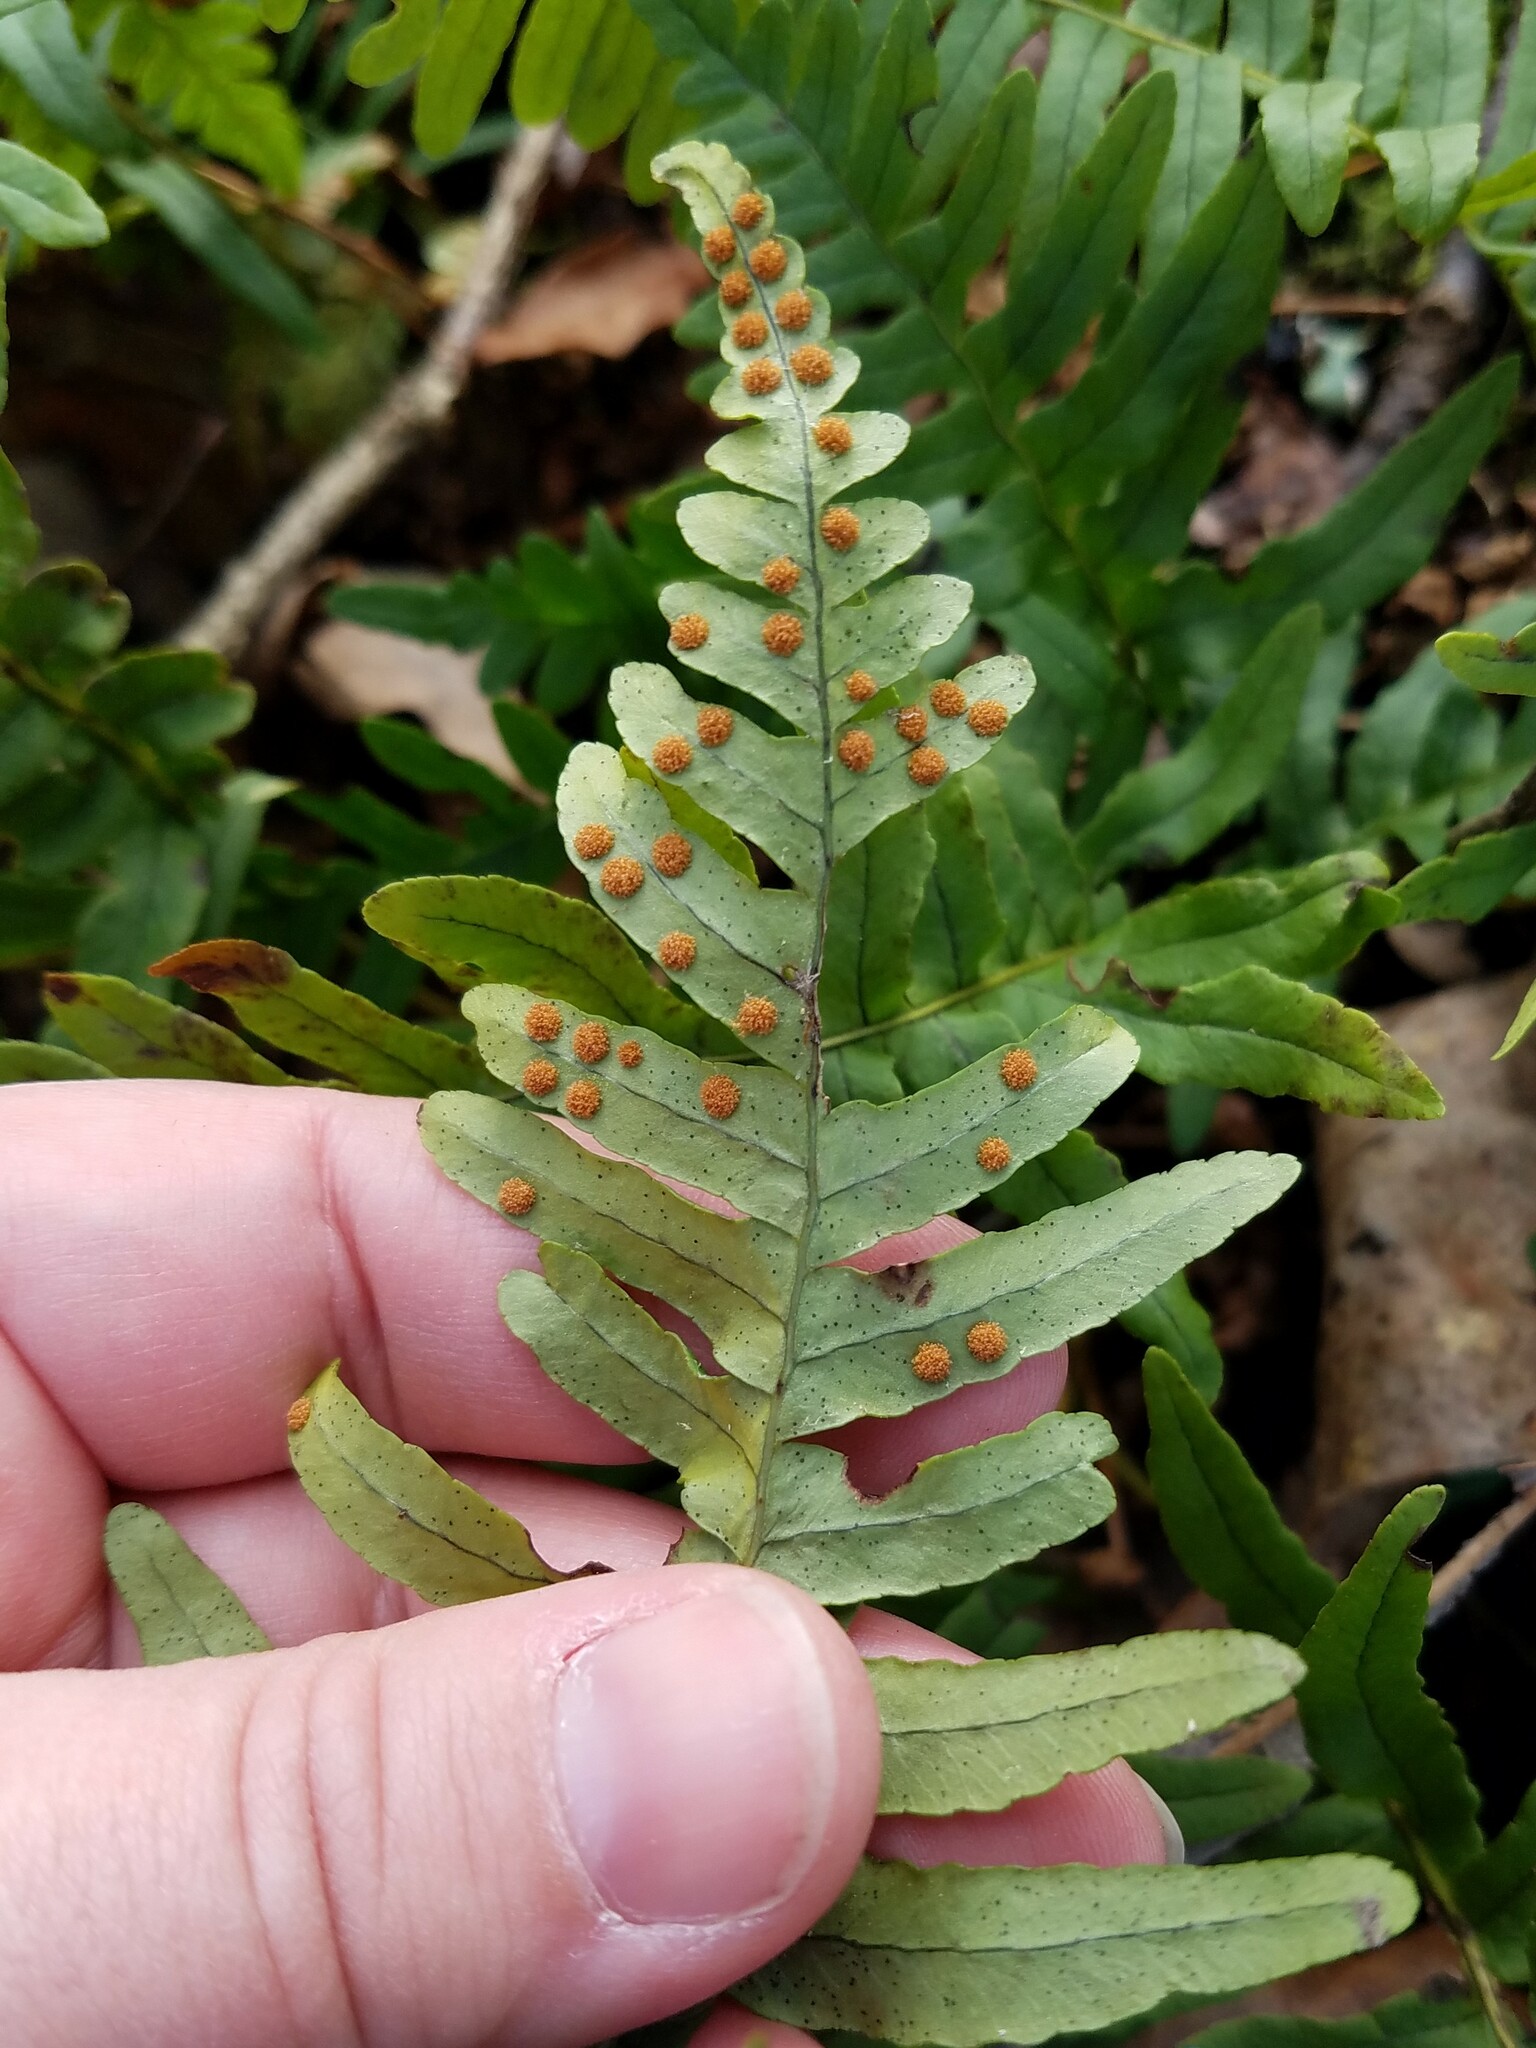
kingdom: Plantae
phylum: Tracheophyta
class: Polypodiopsida
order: Polypodiales
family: Polypodiaceae
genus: Polypodium
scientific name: Polypodium appalachianum
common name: Appalachian polypody
